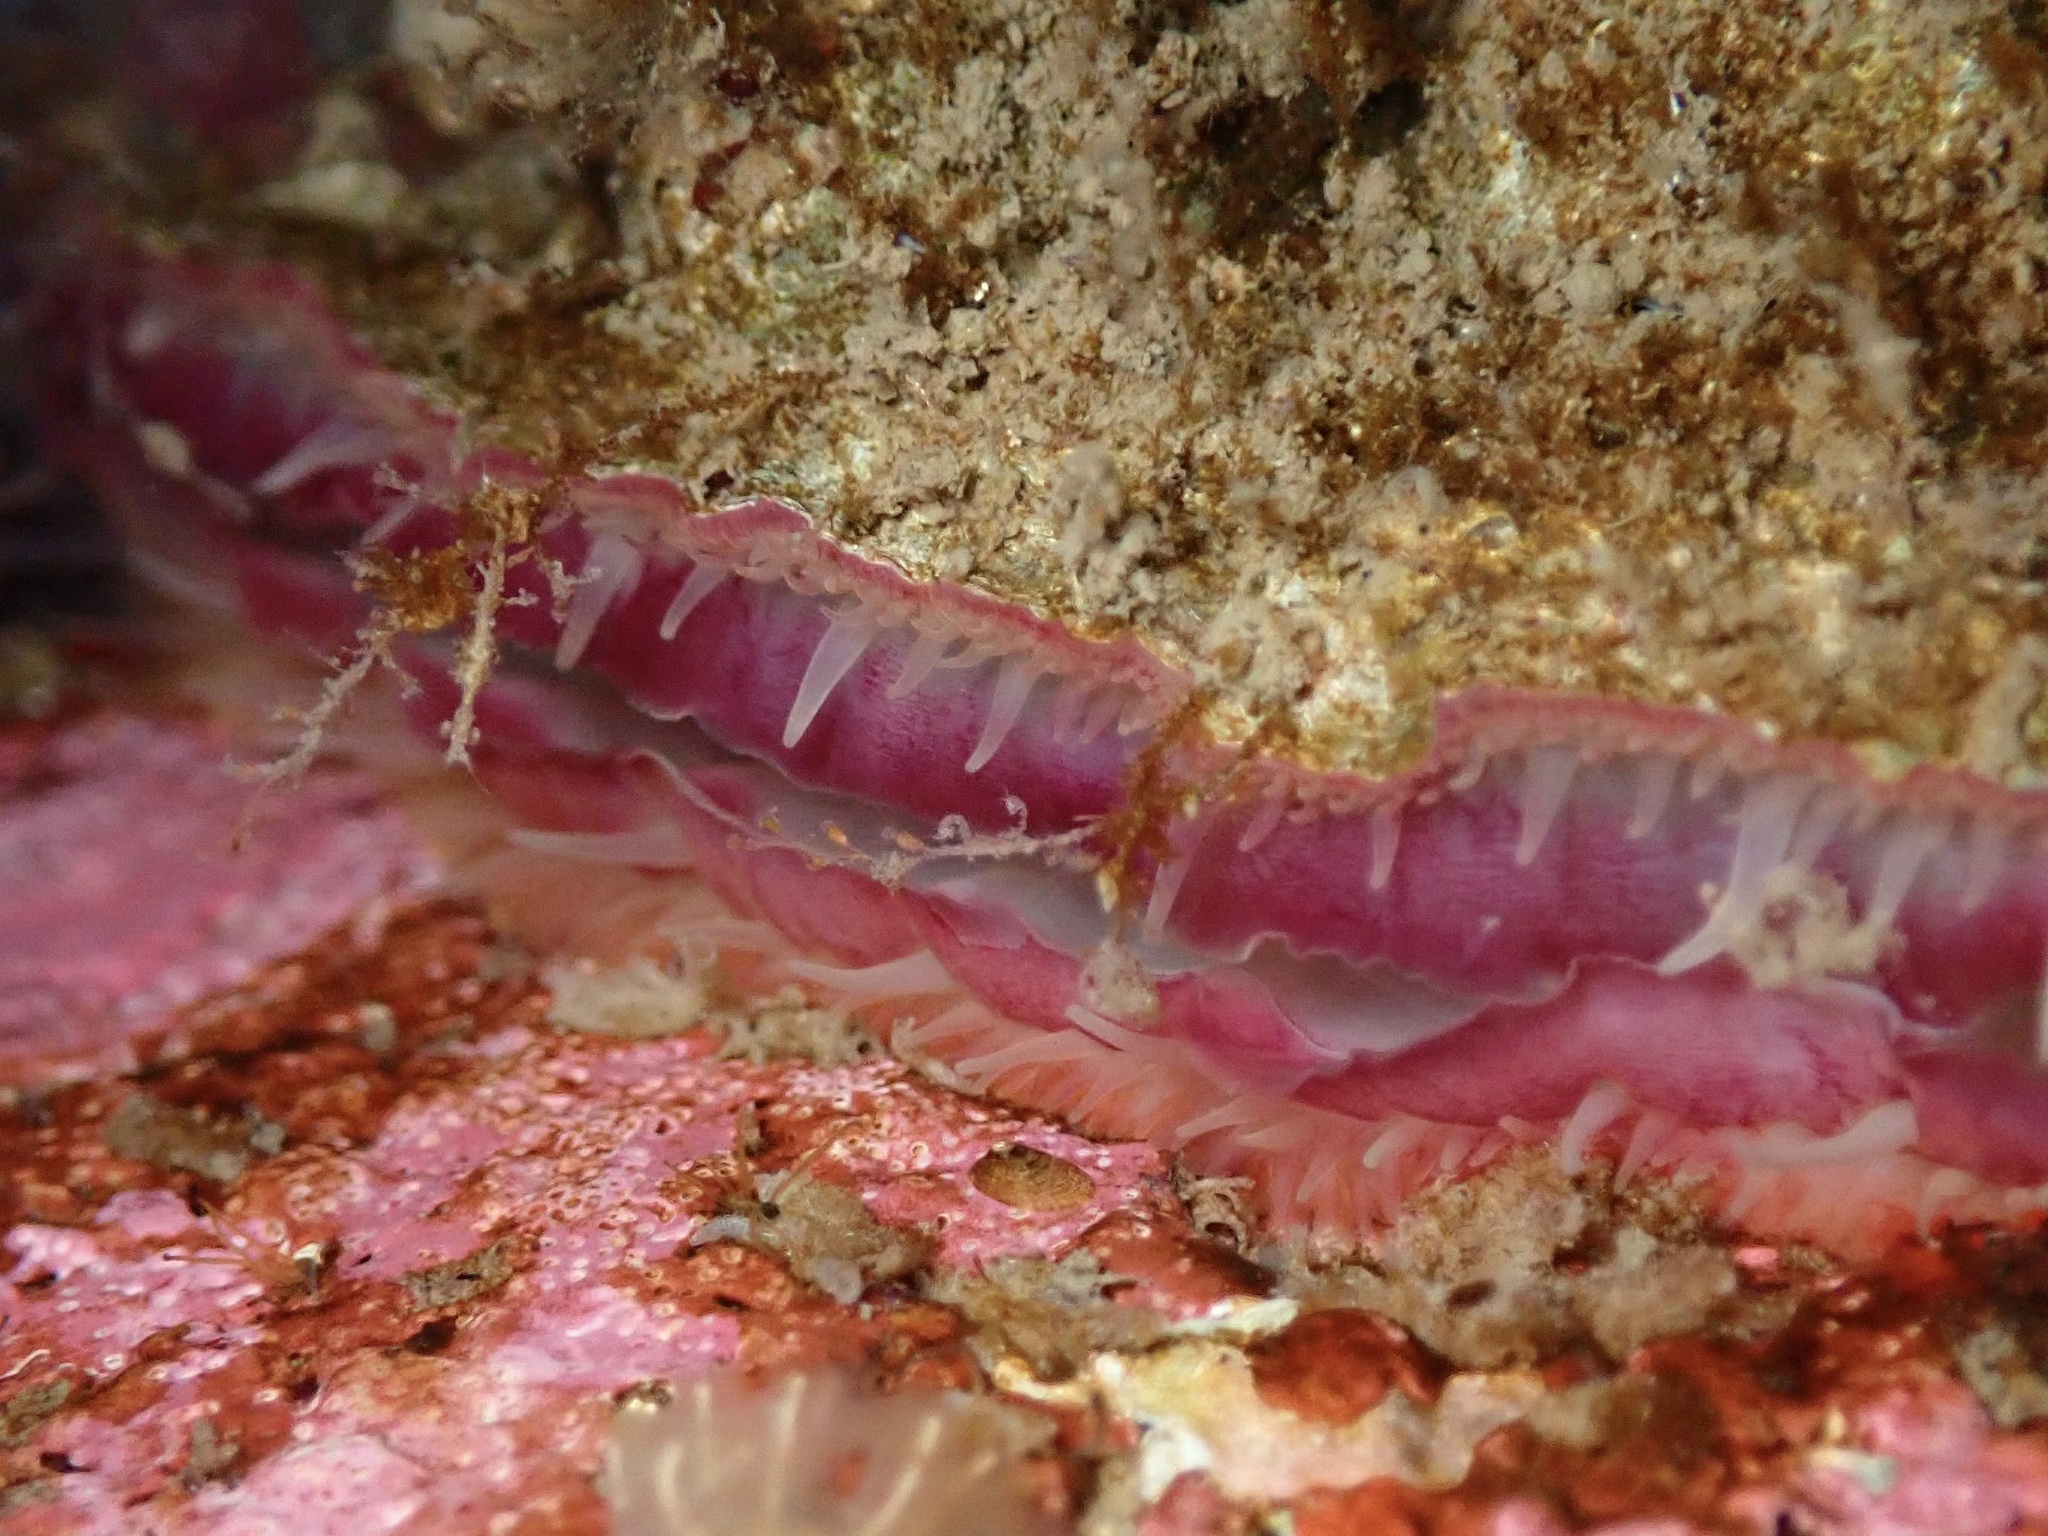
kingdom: Animalia
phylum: Mollusca
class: Bivalvia
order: Pectinida
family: Anomiidae
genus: Pododesmus
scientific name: Pododesmus macrochisma
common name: Alaska jingle
